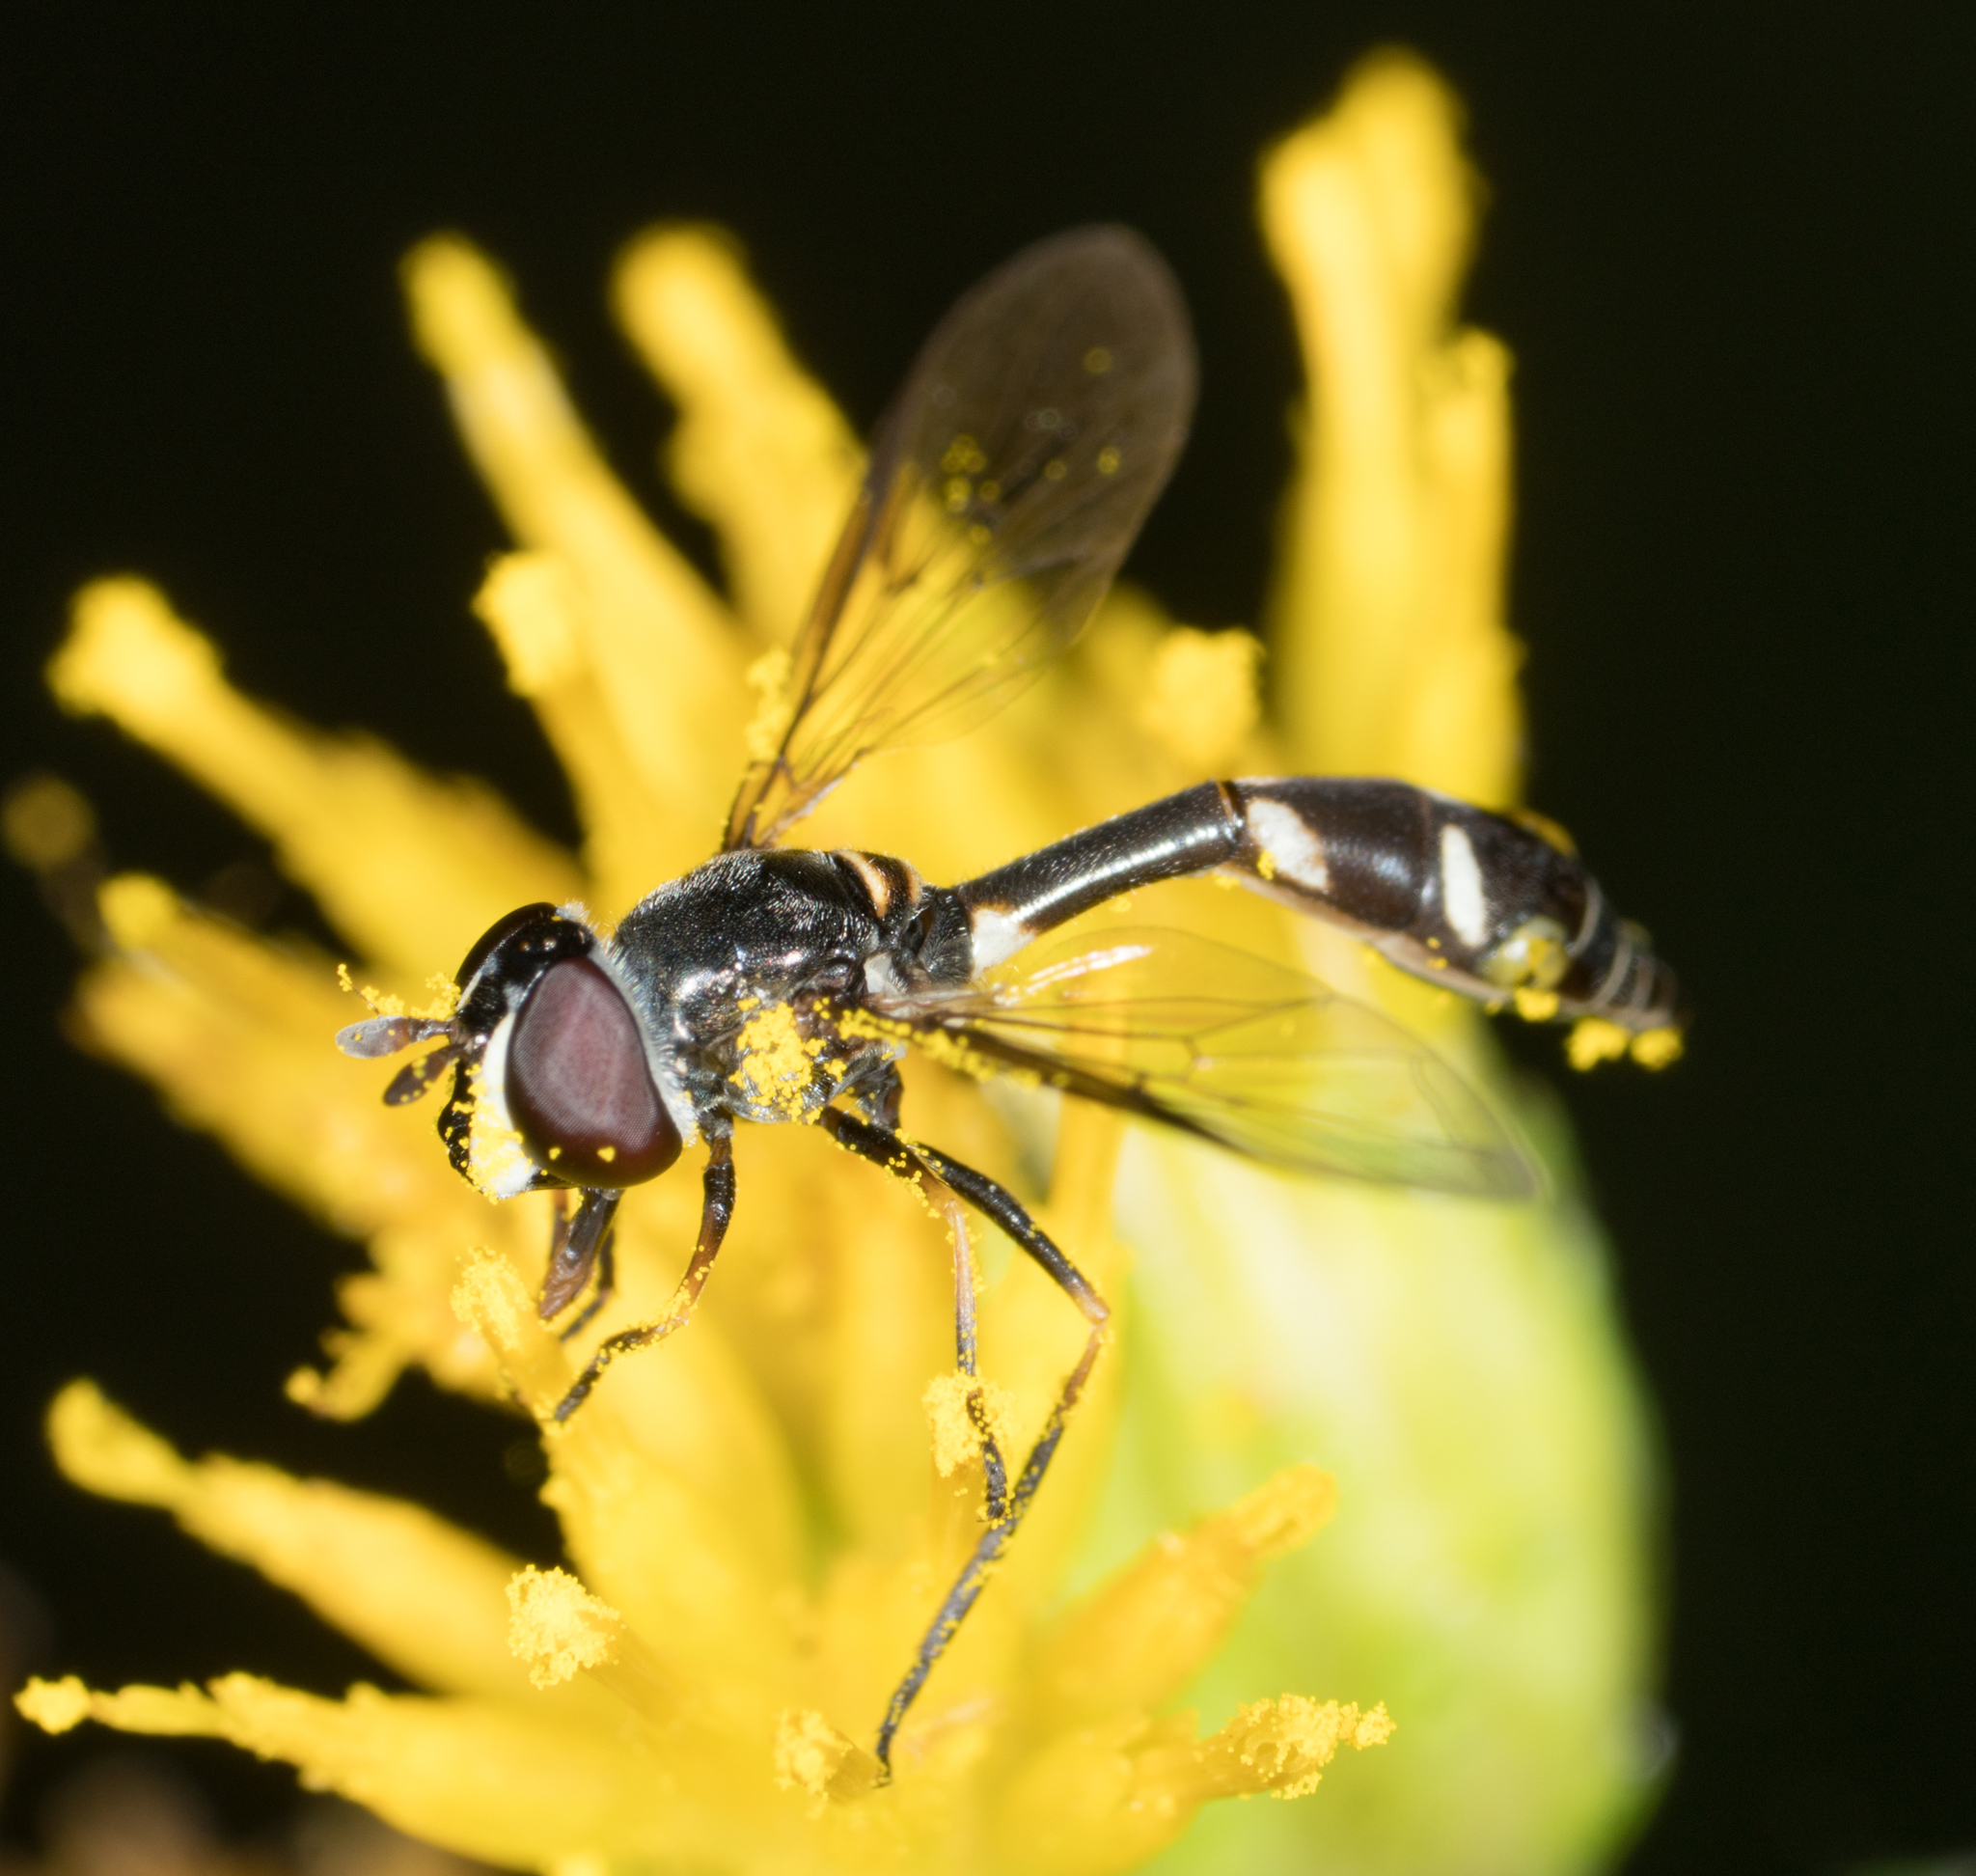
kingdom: Animalia
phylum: Arthropoda
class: Insecta
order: Diptera
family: Syrphidae
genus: Dioprosopa
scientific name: Dioprosopa clavatus
